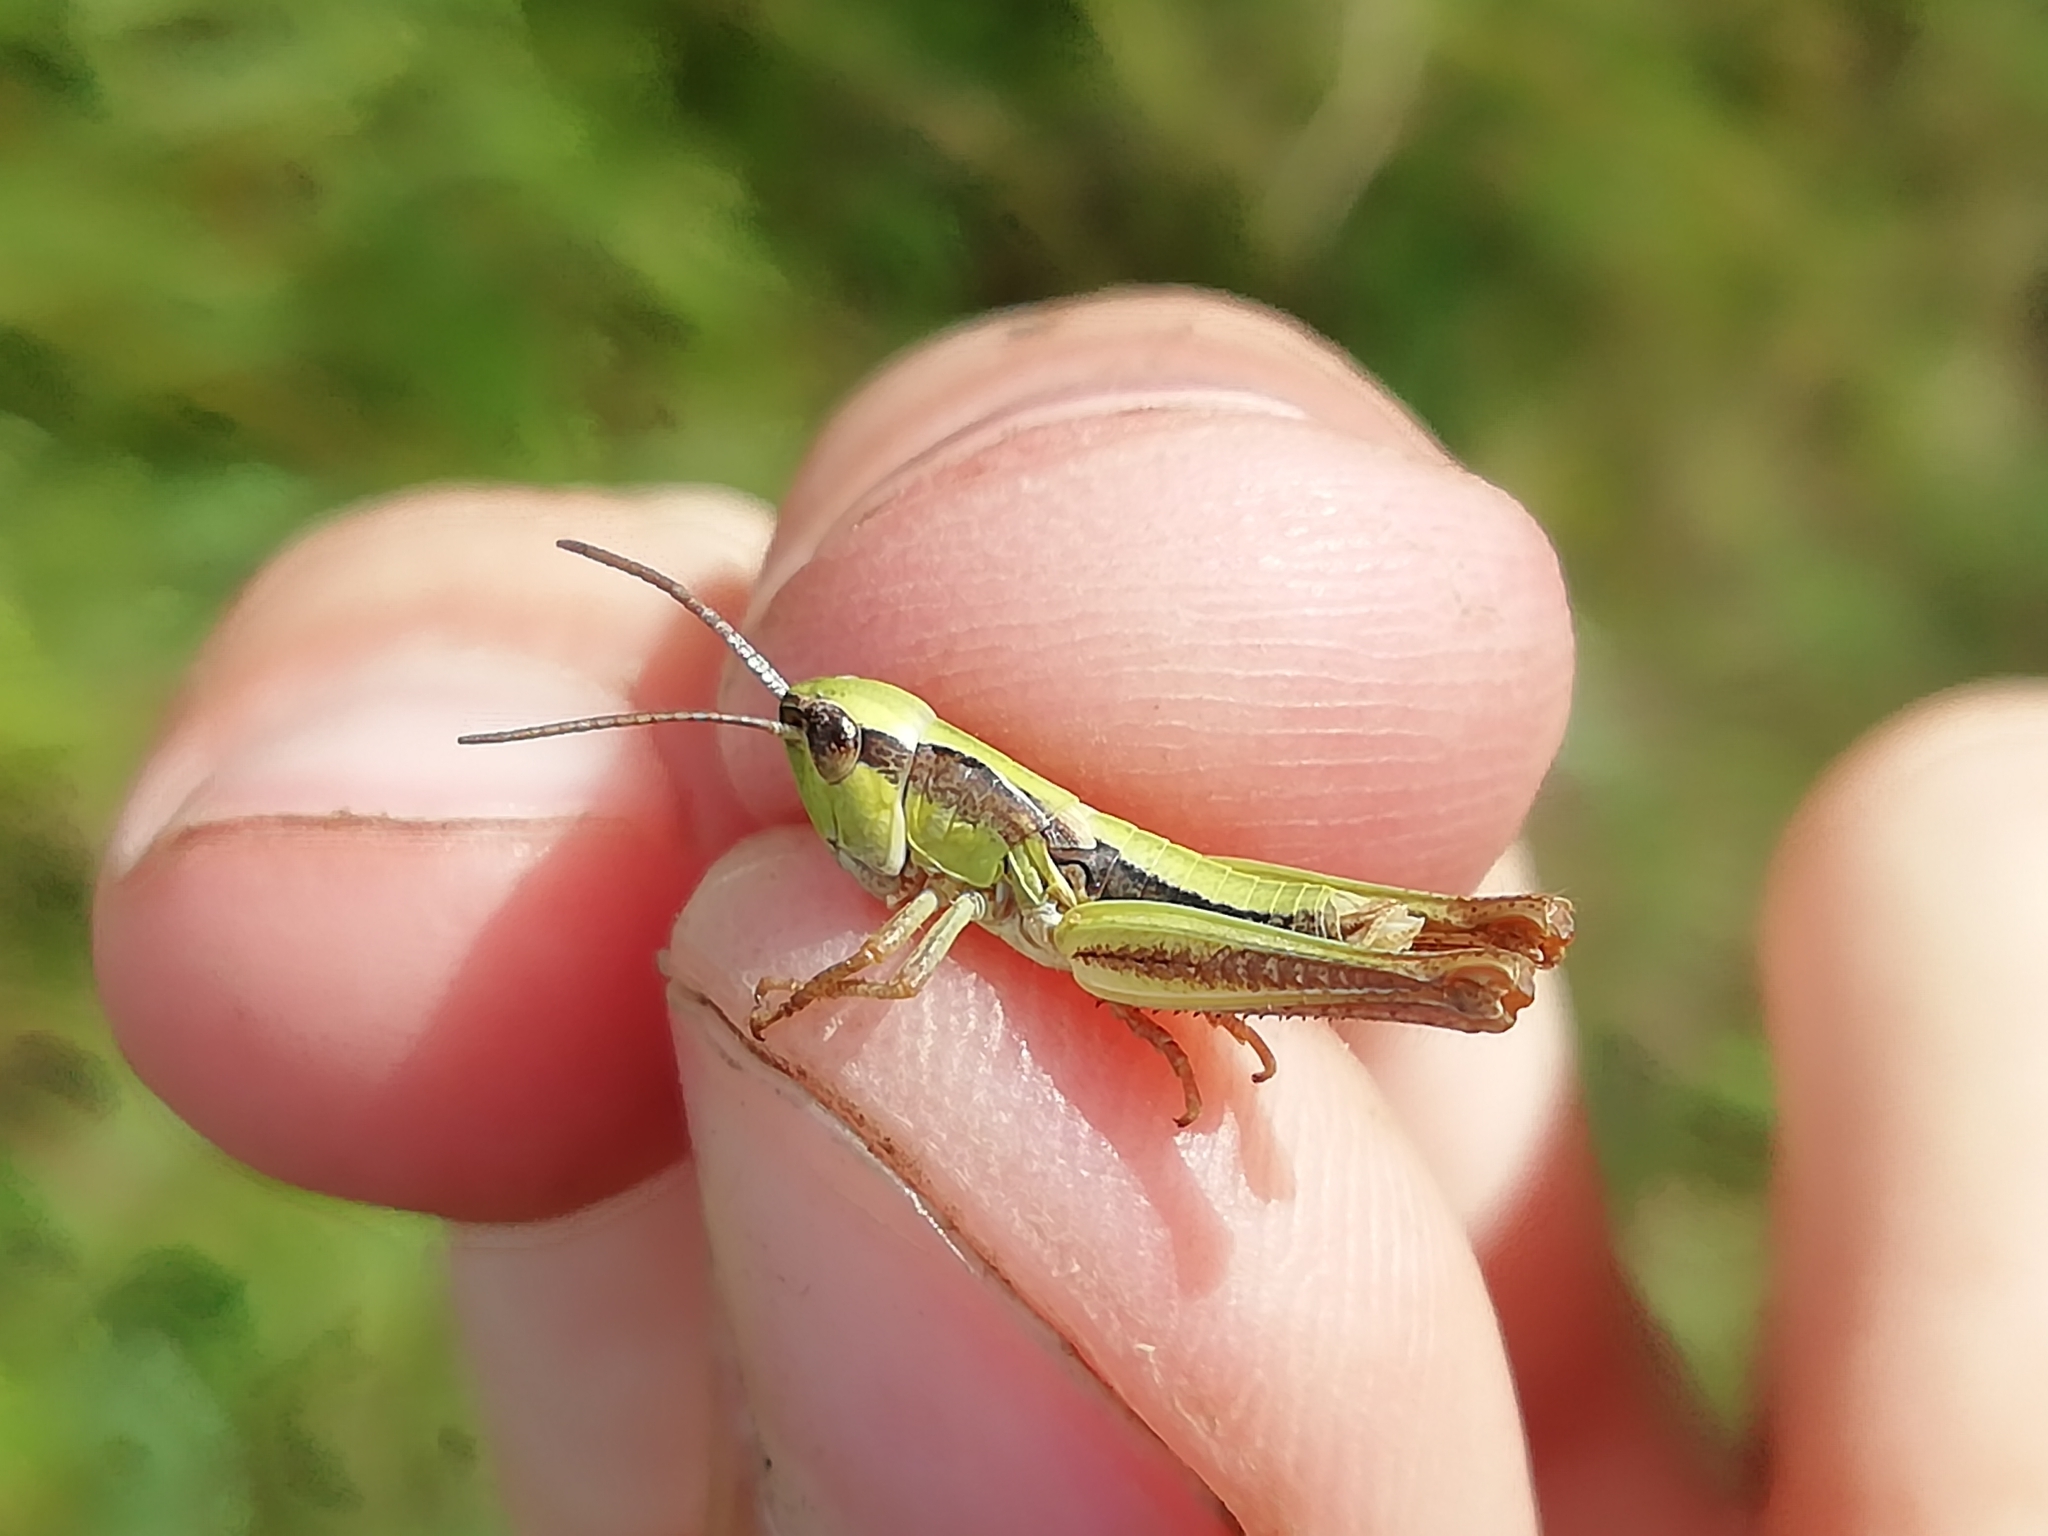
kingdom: Animalia
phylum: Arthropoda
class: Insecta
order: Orthoptera
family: Acrididae
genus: Chorthippus
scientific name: Chorthippus fallax
